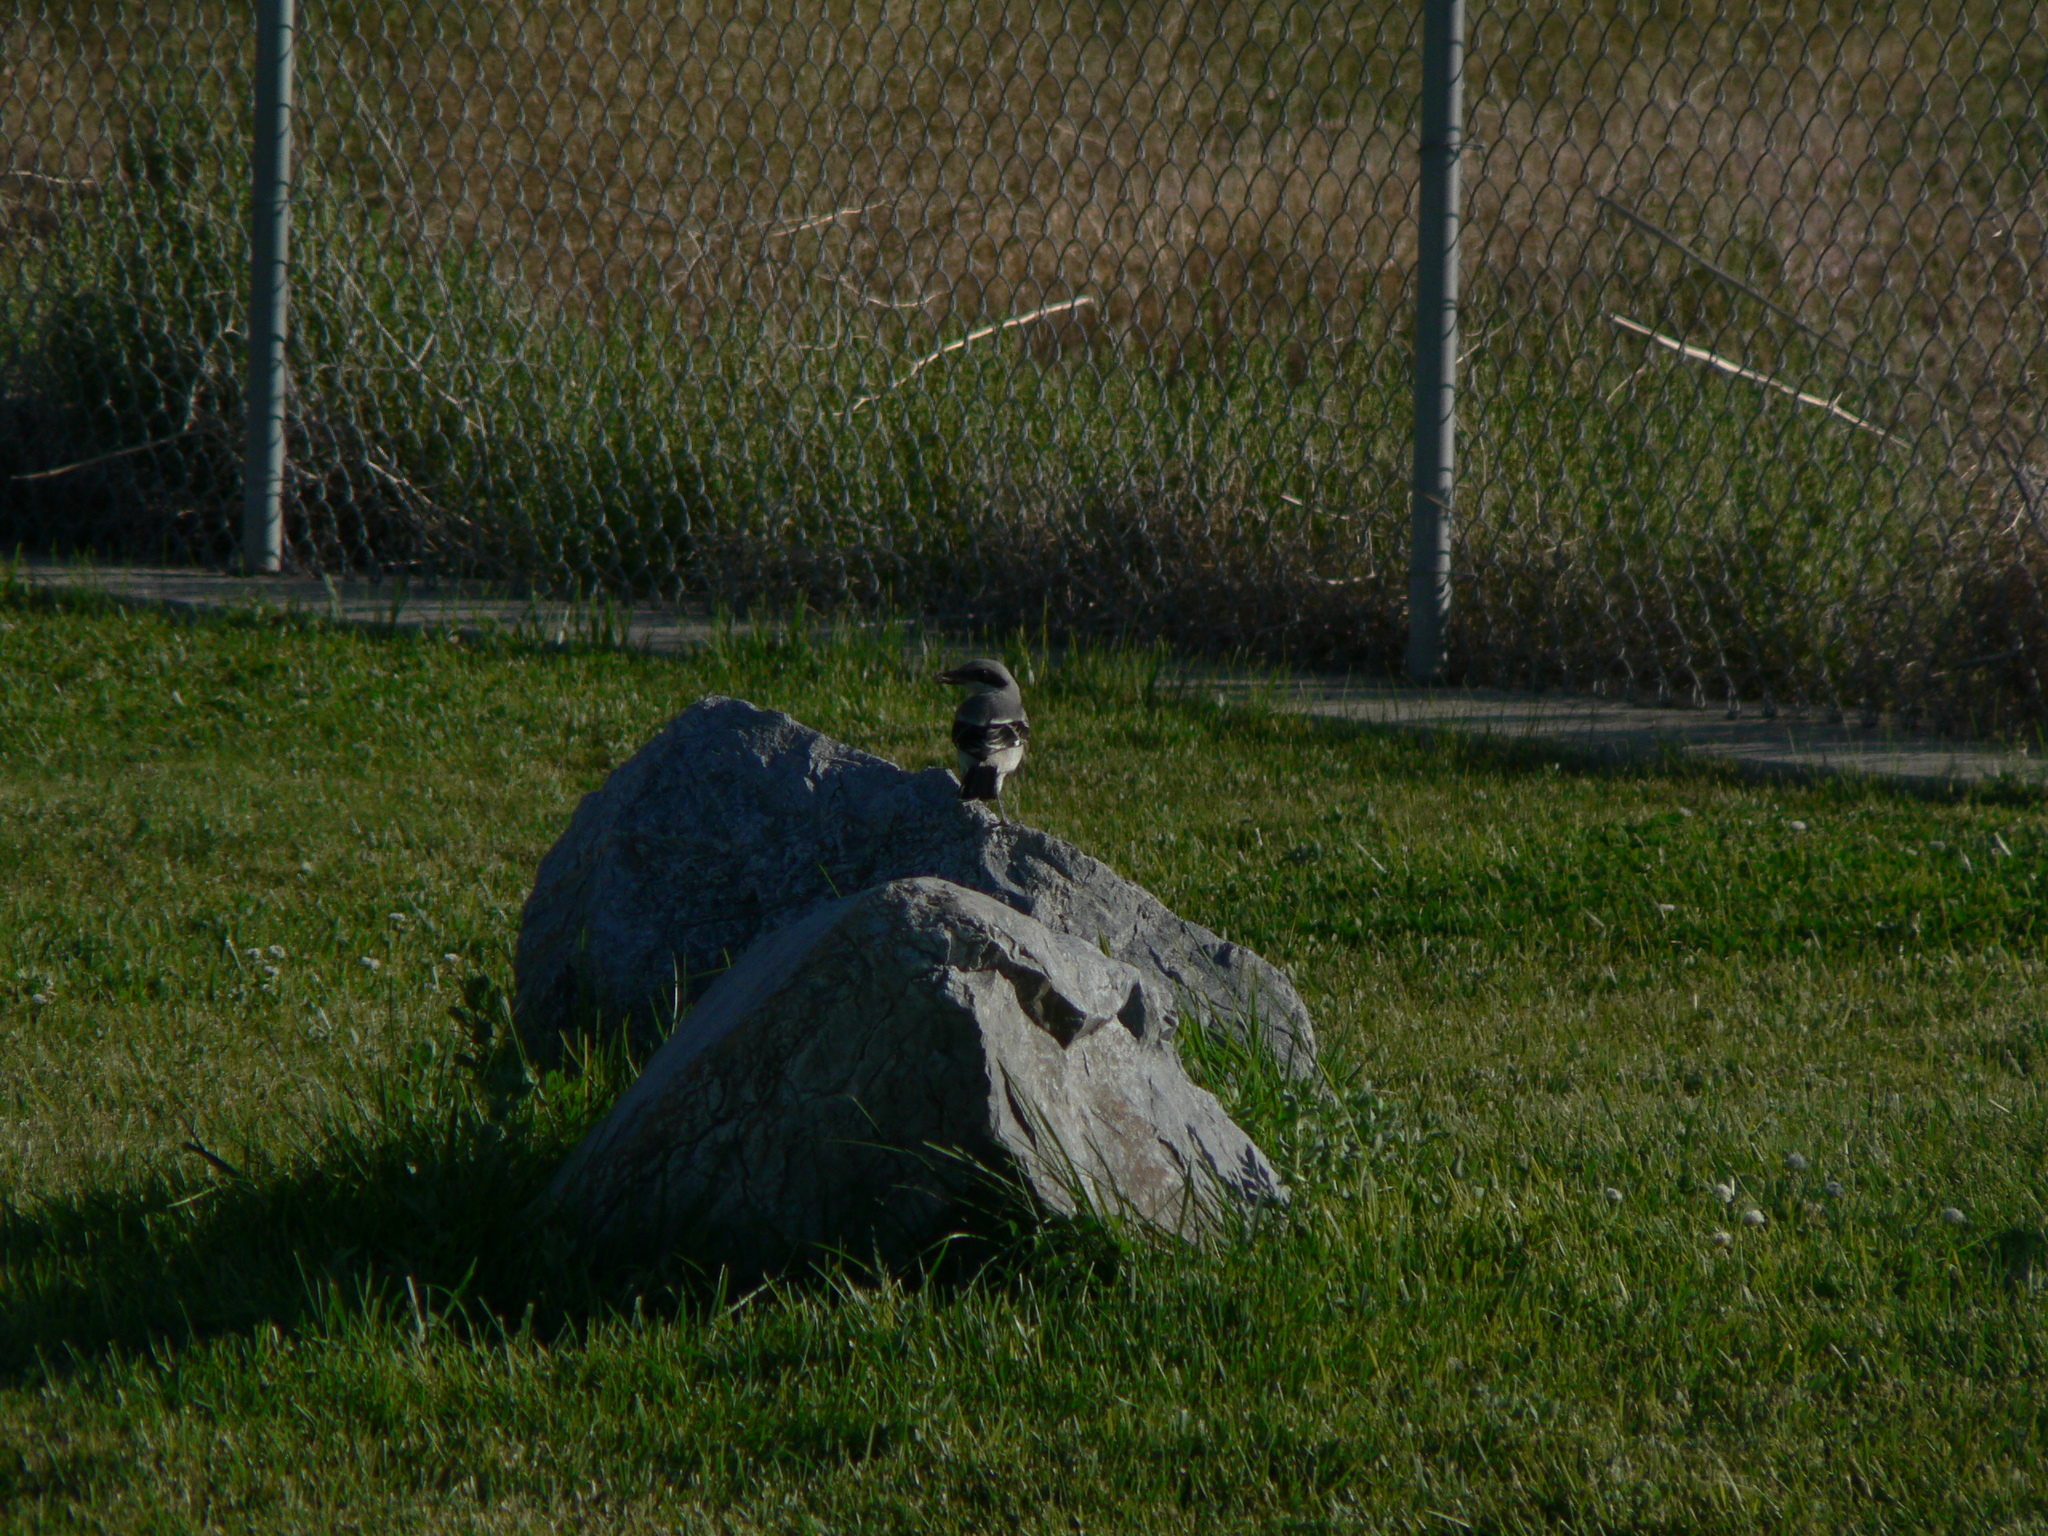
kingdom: Animalia
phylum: Chordata
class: Aves
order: Passeriformes
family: Laniidae
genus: Lanius
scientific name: Lanius ludovicianus
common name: Loggerhead shrike
